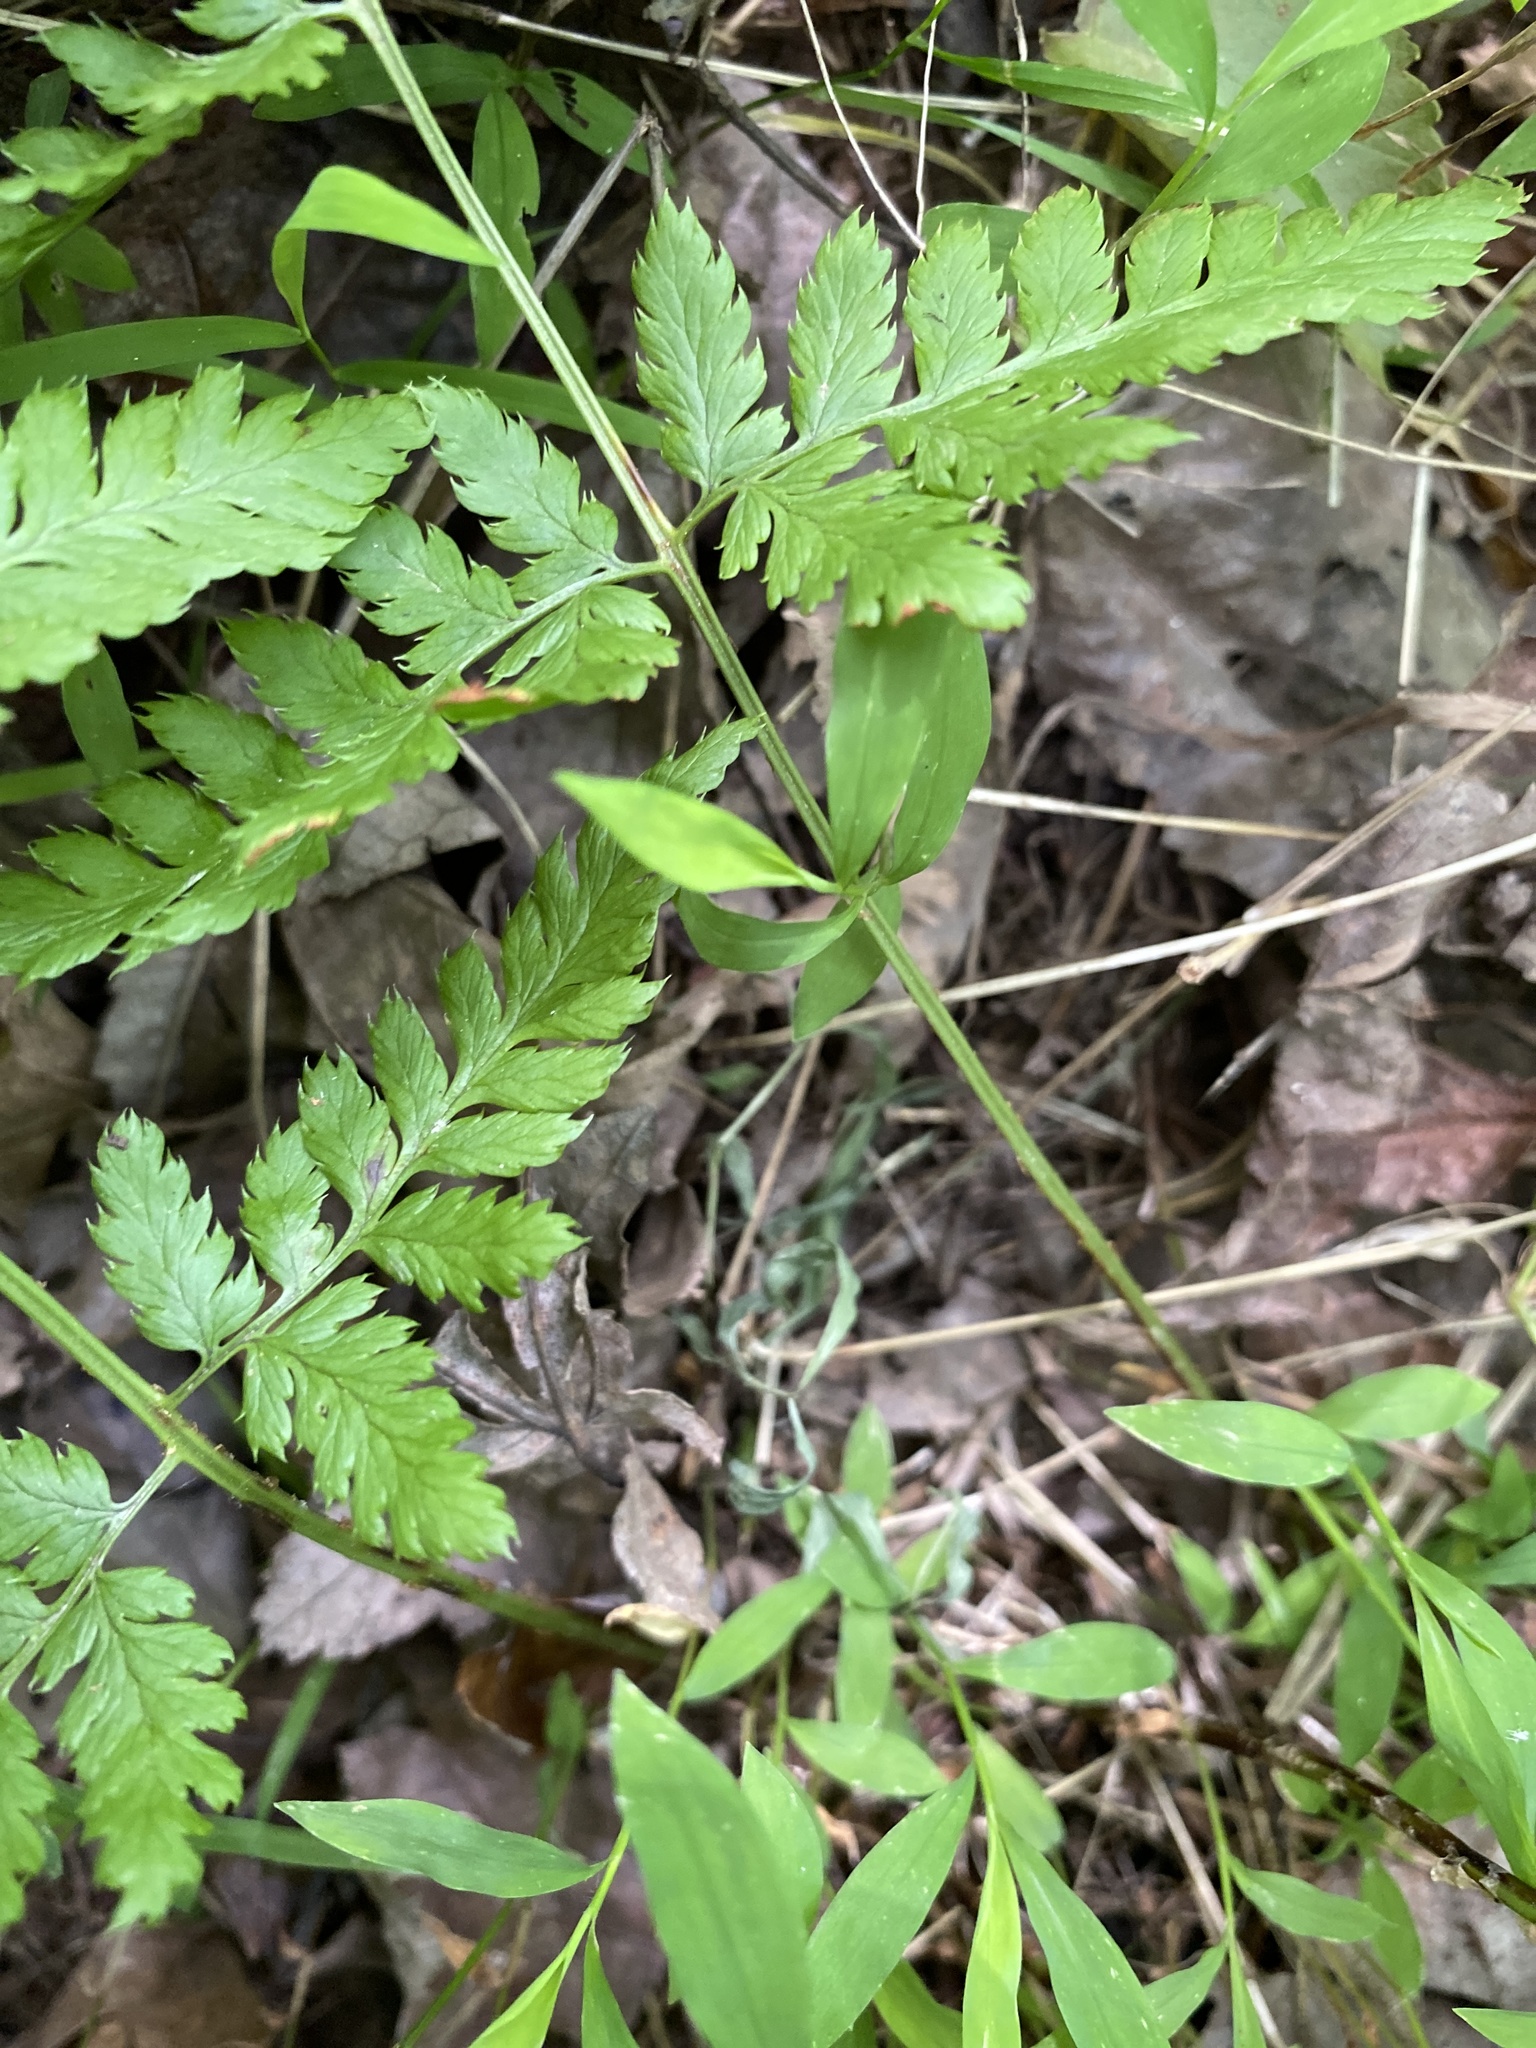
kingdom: Plantae
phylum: Tracheophyta
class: Polypodiopsida
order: Polypodiales
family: Dryopteridaceae
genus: Dryopteris
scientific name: Dryopteris carthusiana
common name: Narrow buckler-fern
